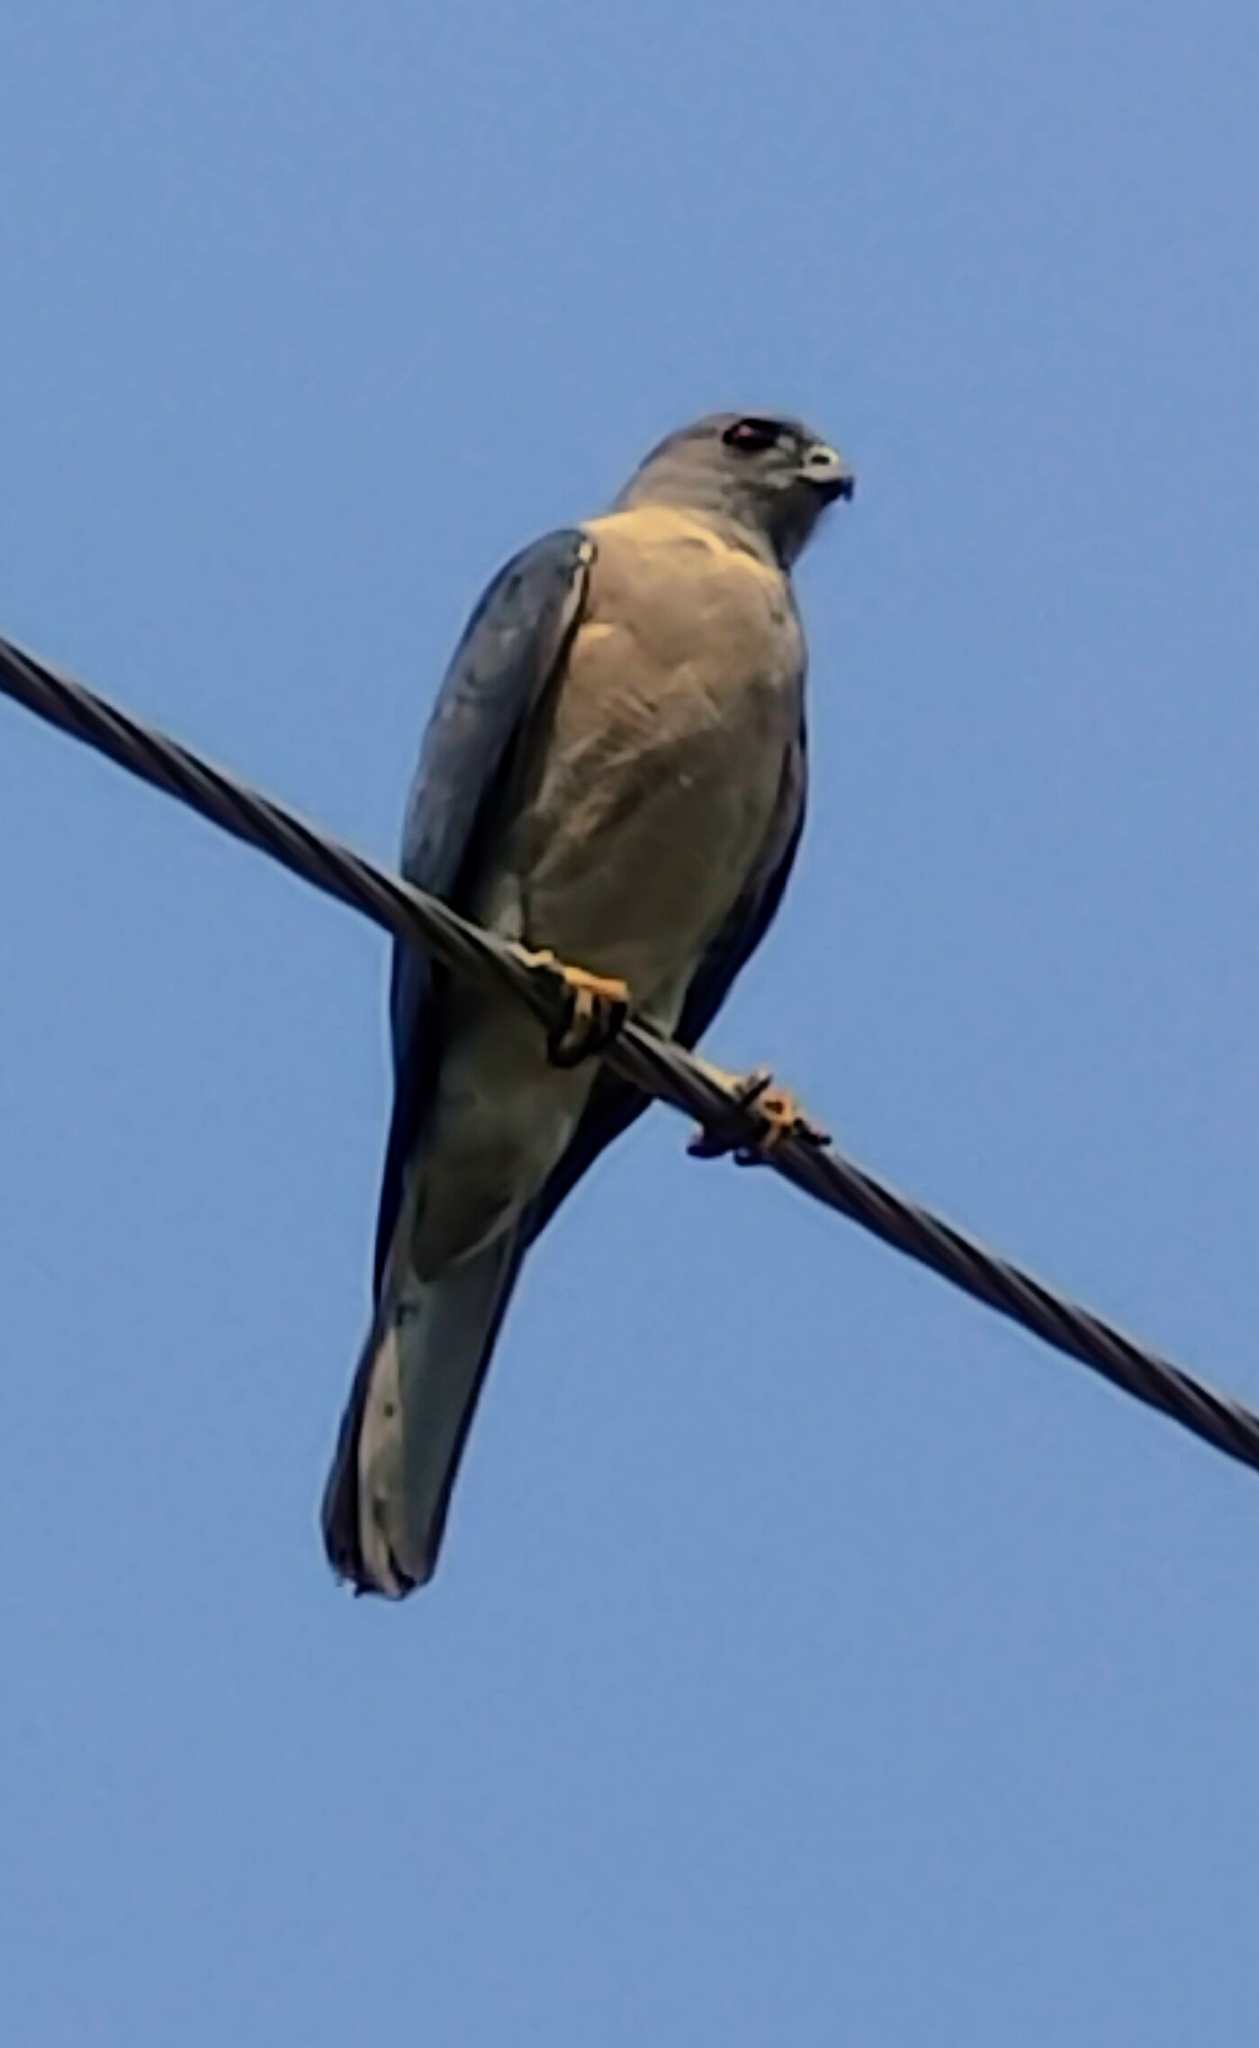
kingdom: Animalia
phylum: Chordata
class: Aves
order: Accipitriformes
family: Accipitridae
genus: Accipiter
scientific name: Accipiter badius
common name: Shikra
